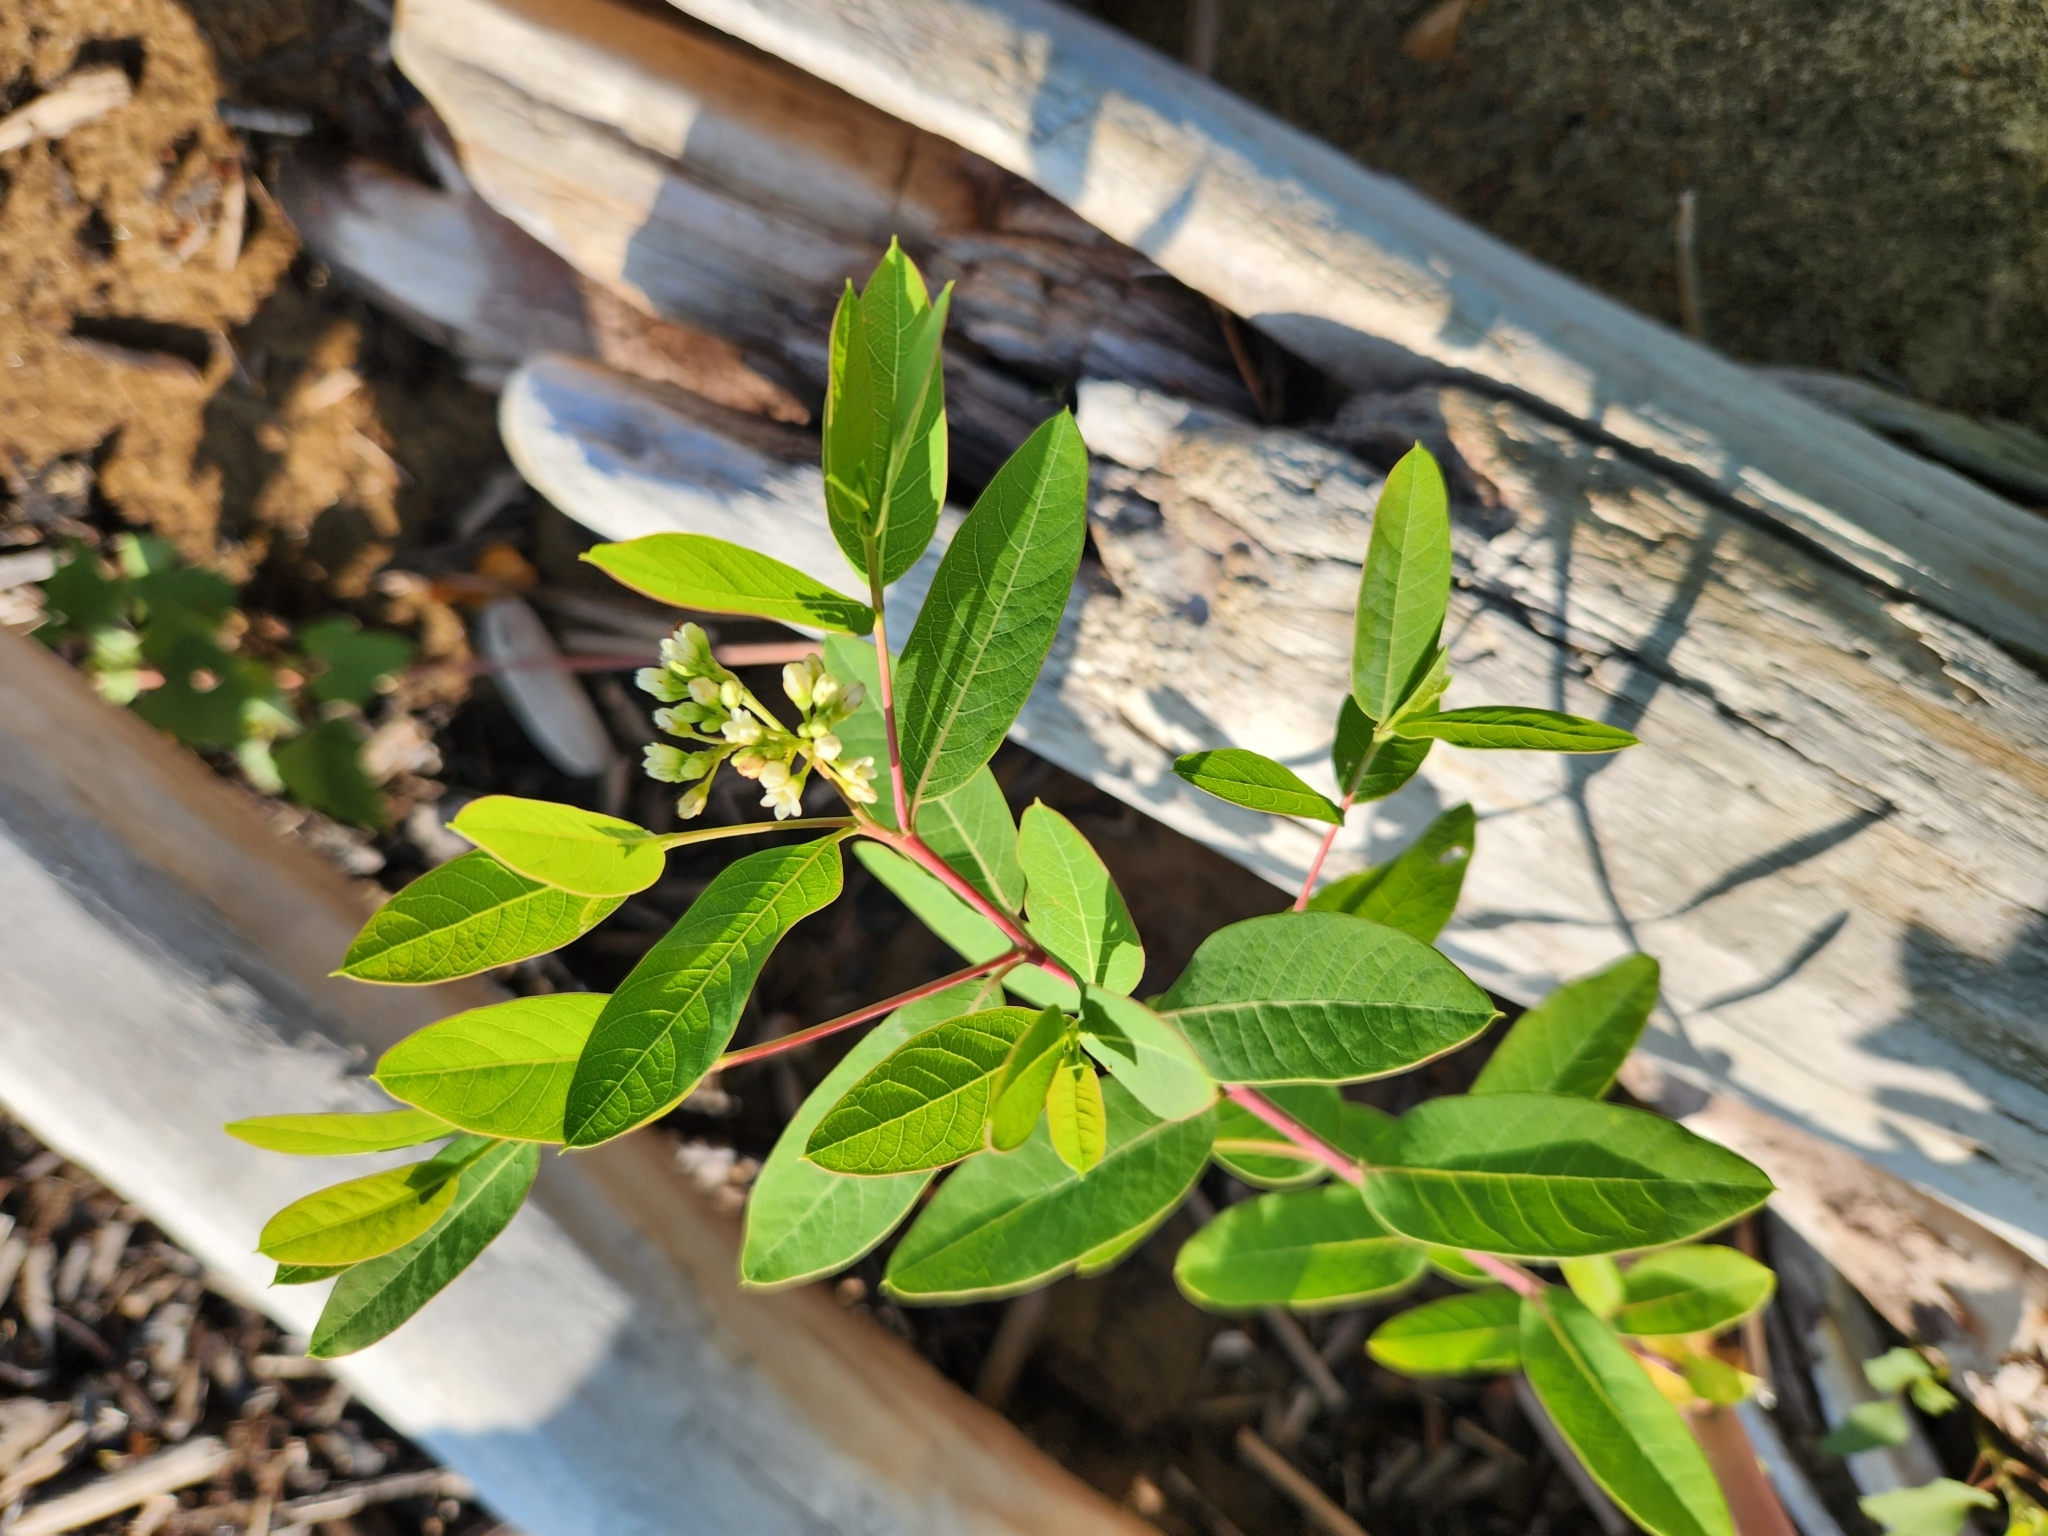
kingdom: Plantae
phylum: Tracheophyta
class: Magnoliopsida
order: Gentianales
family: Apocynaceae
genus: Apocynum
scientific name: Apocynum cannabinum
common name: Hemp dogbane
